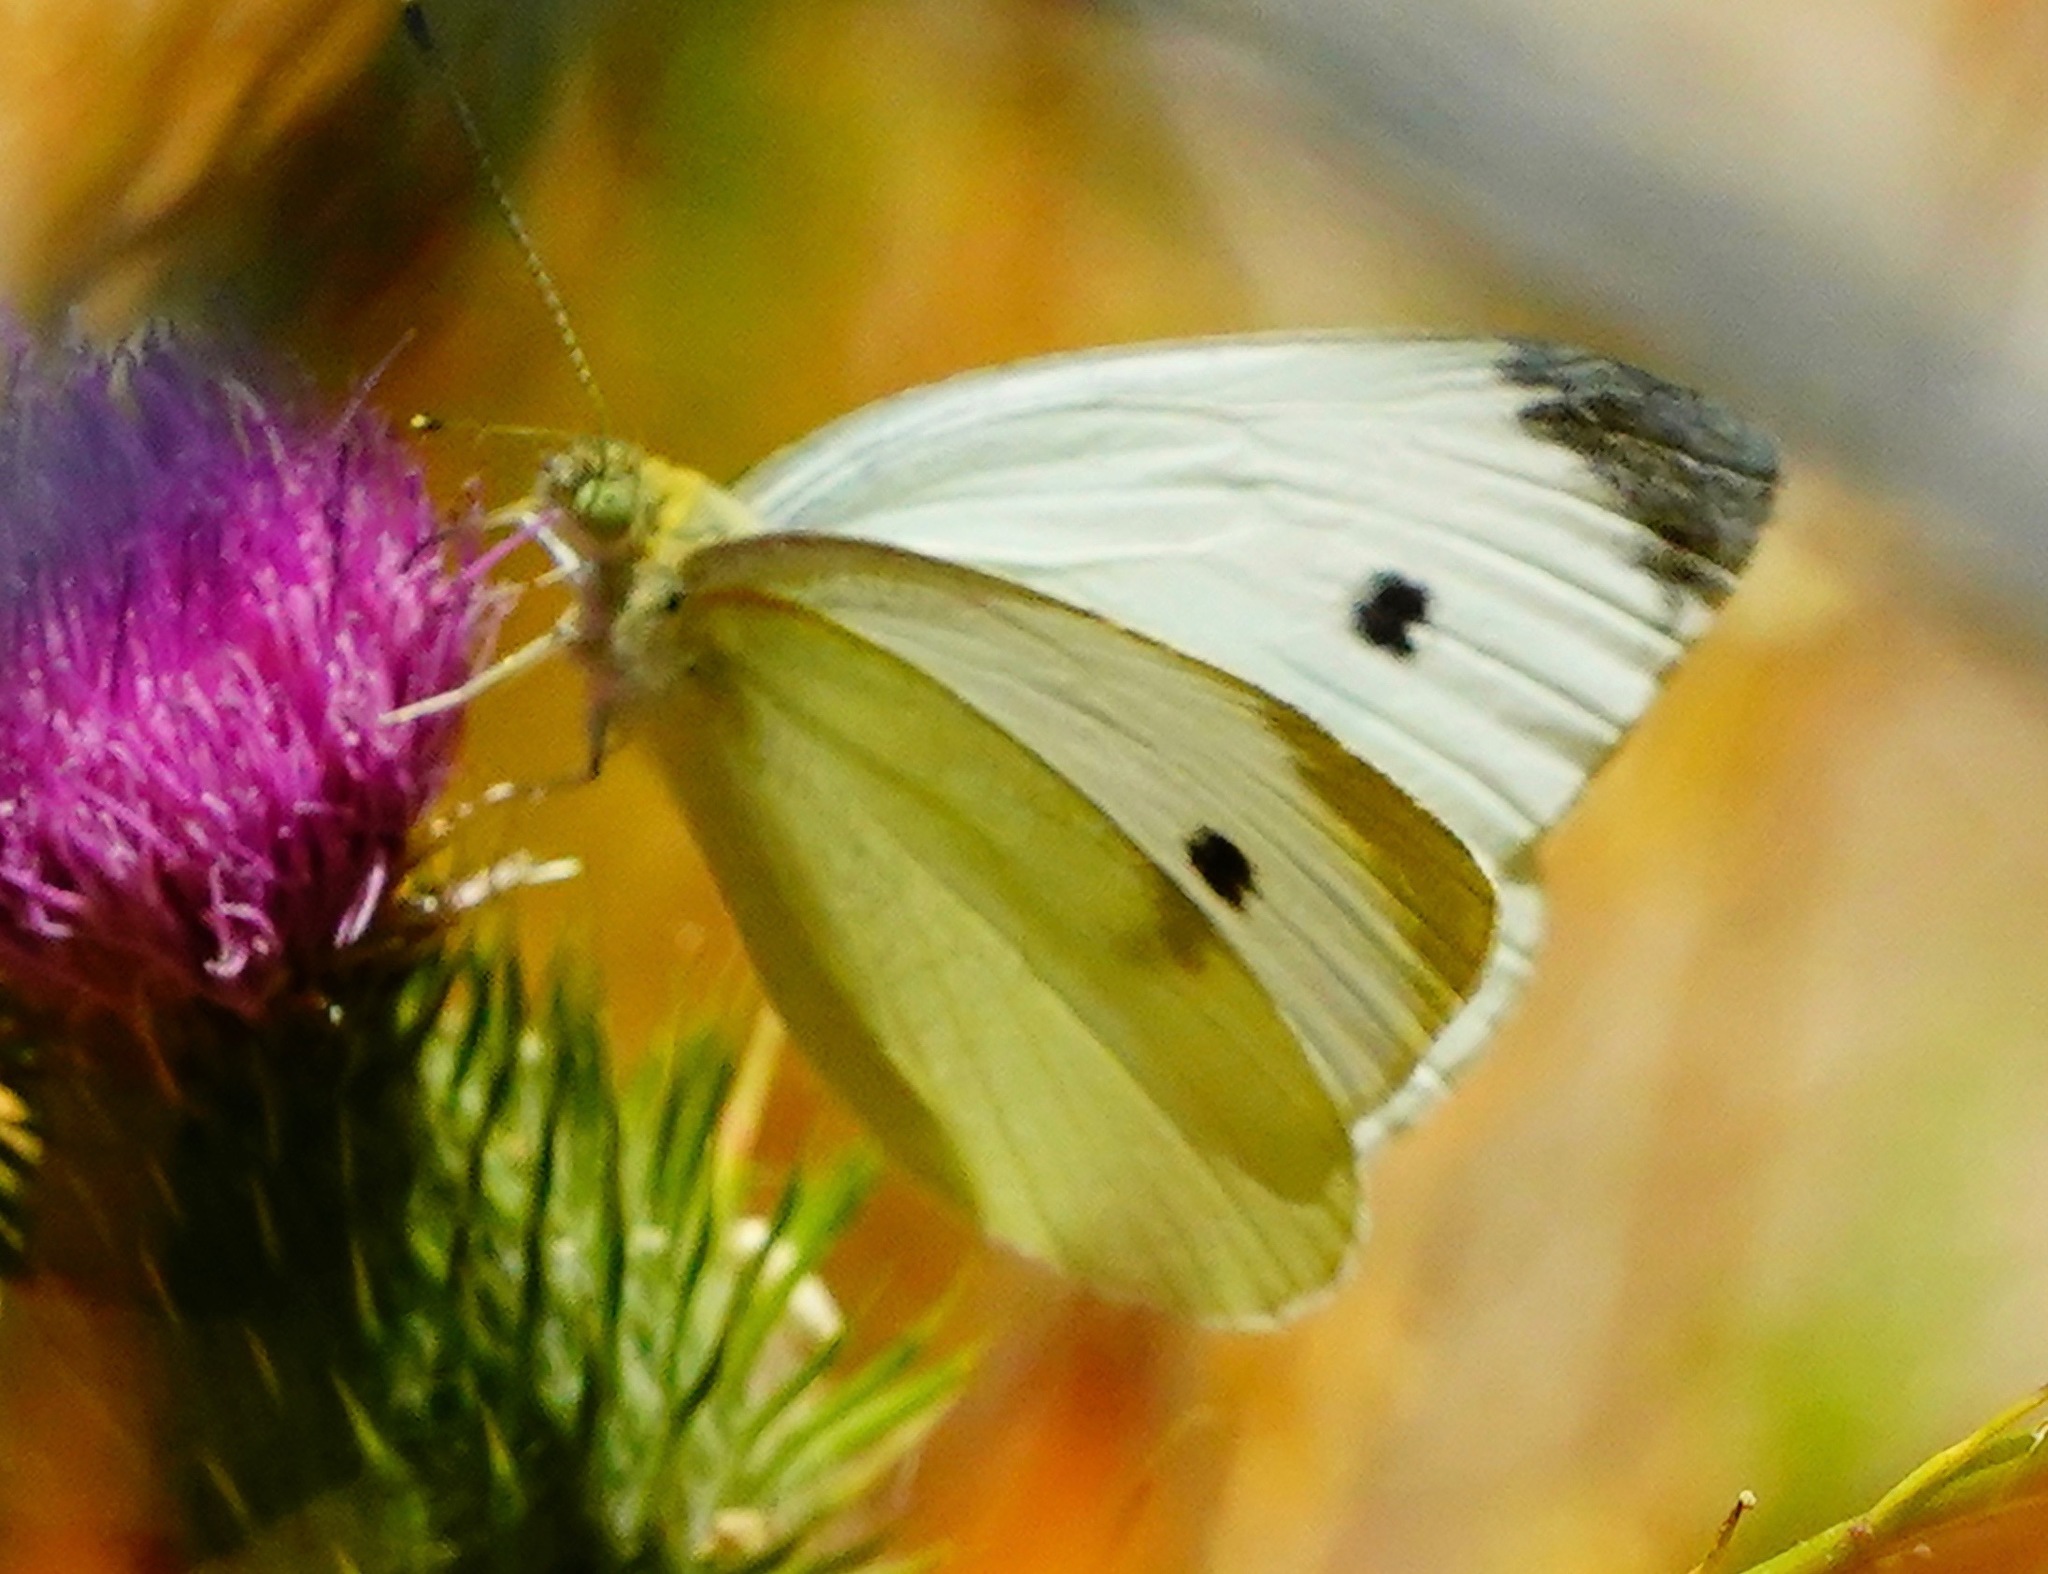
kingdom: Animalia
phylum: Arthropoda
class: Insecta
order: Lepidoptera
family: Pieridae
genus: Pieris
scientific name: Pieris rapae
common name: Small white
